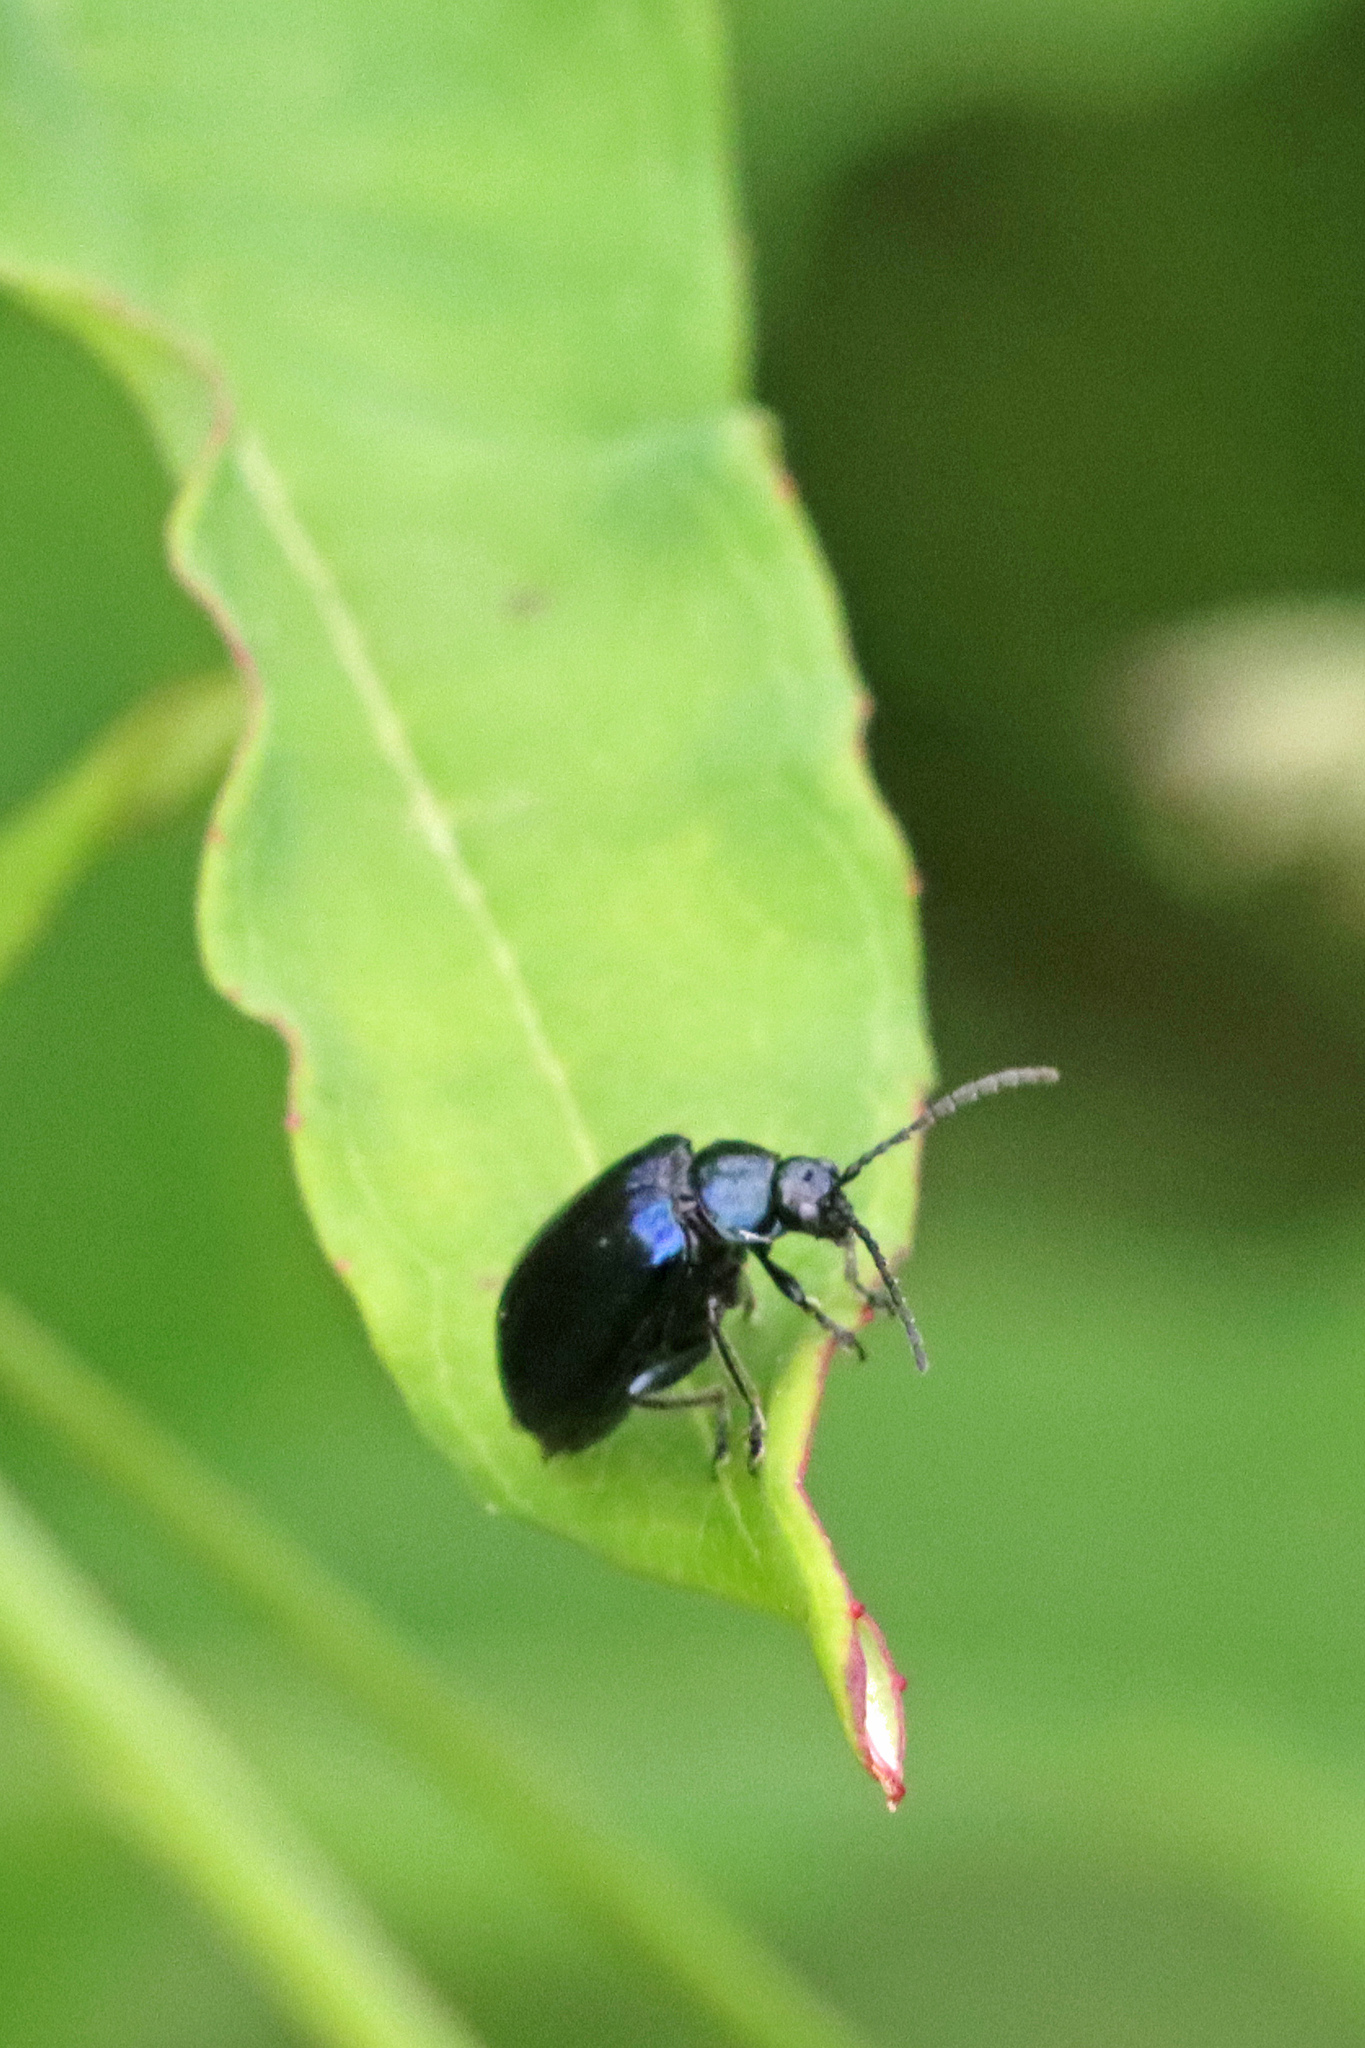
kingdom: Animalia
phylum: Arthropoda
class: Insecta
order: Coleoptera
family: Chrysomelidae
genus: Agelastica
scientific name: Agelastica alni
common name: Alder leaf beetle
